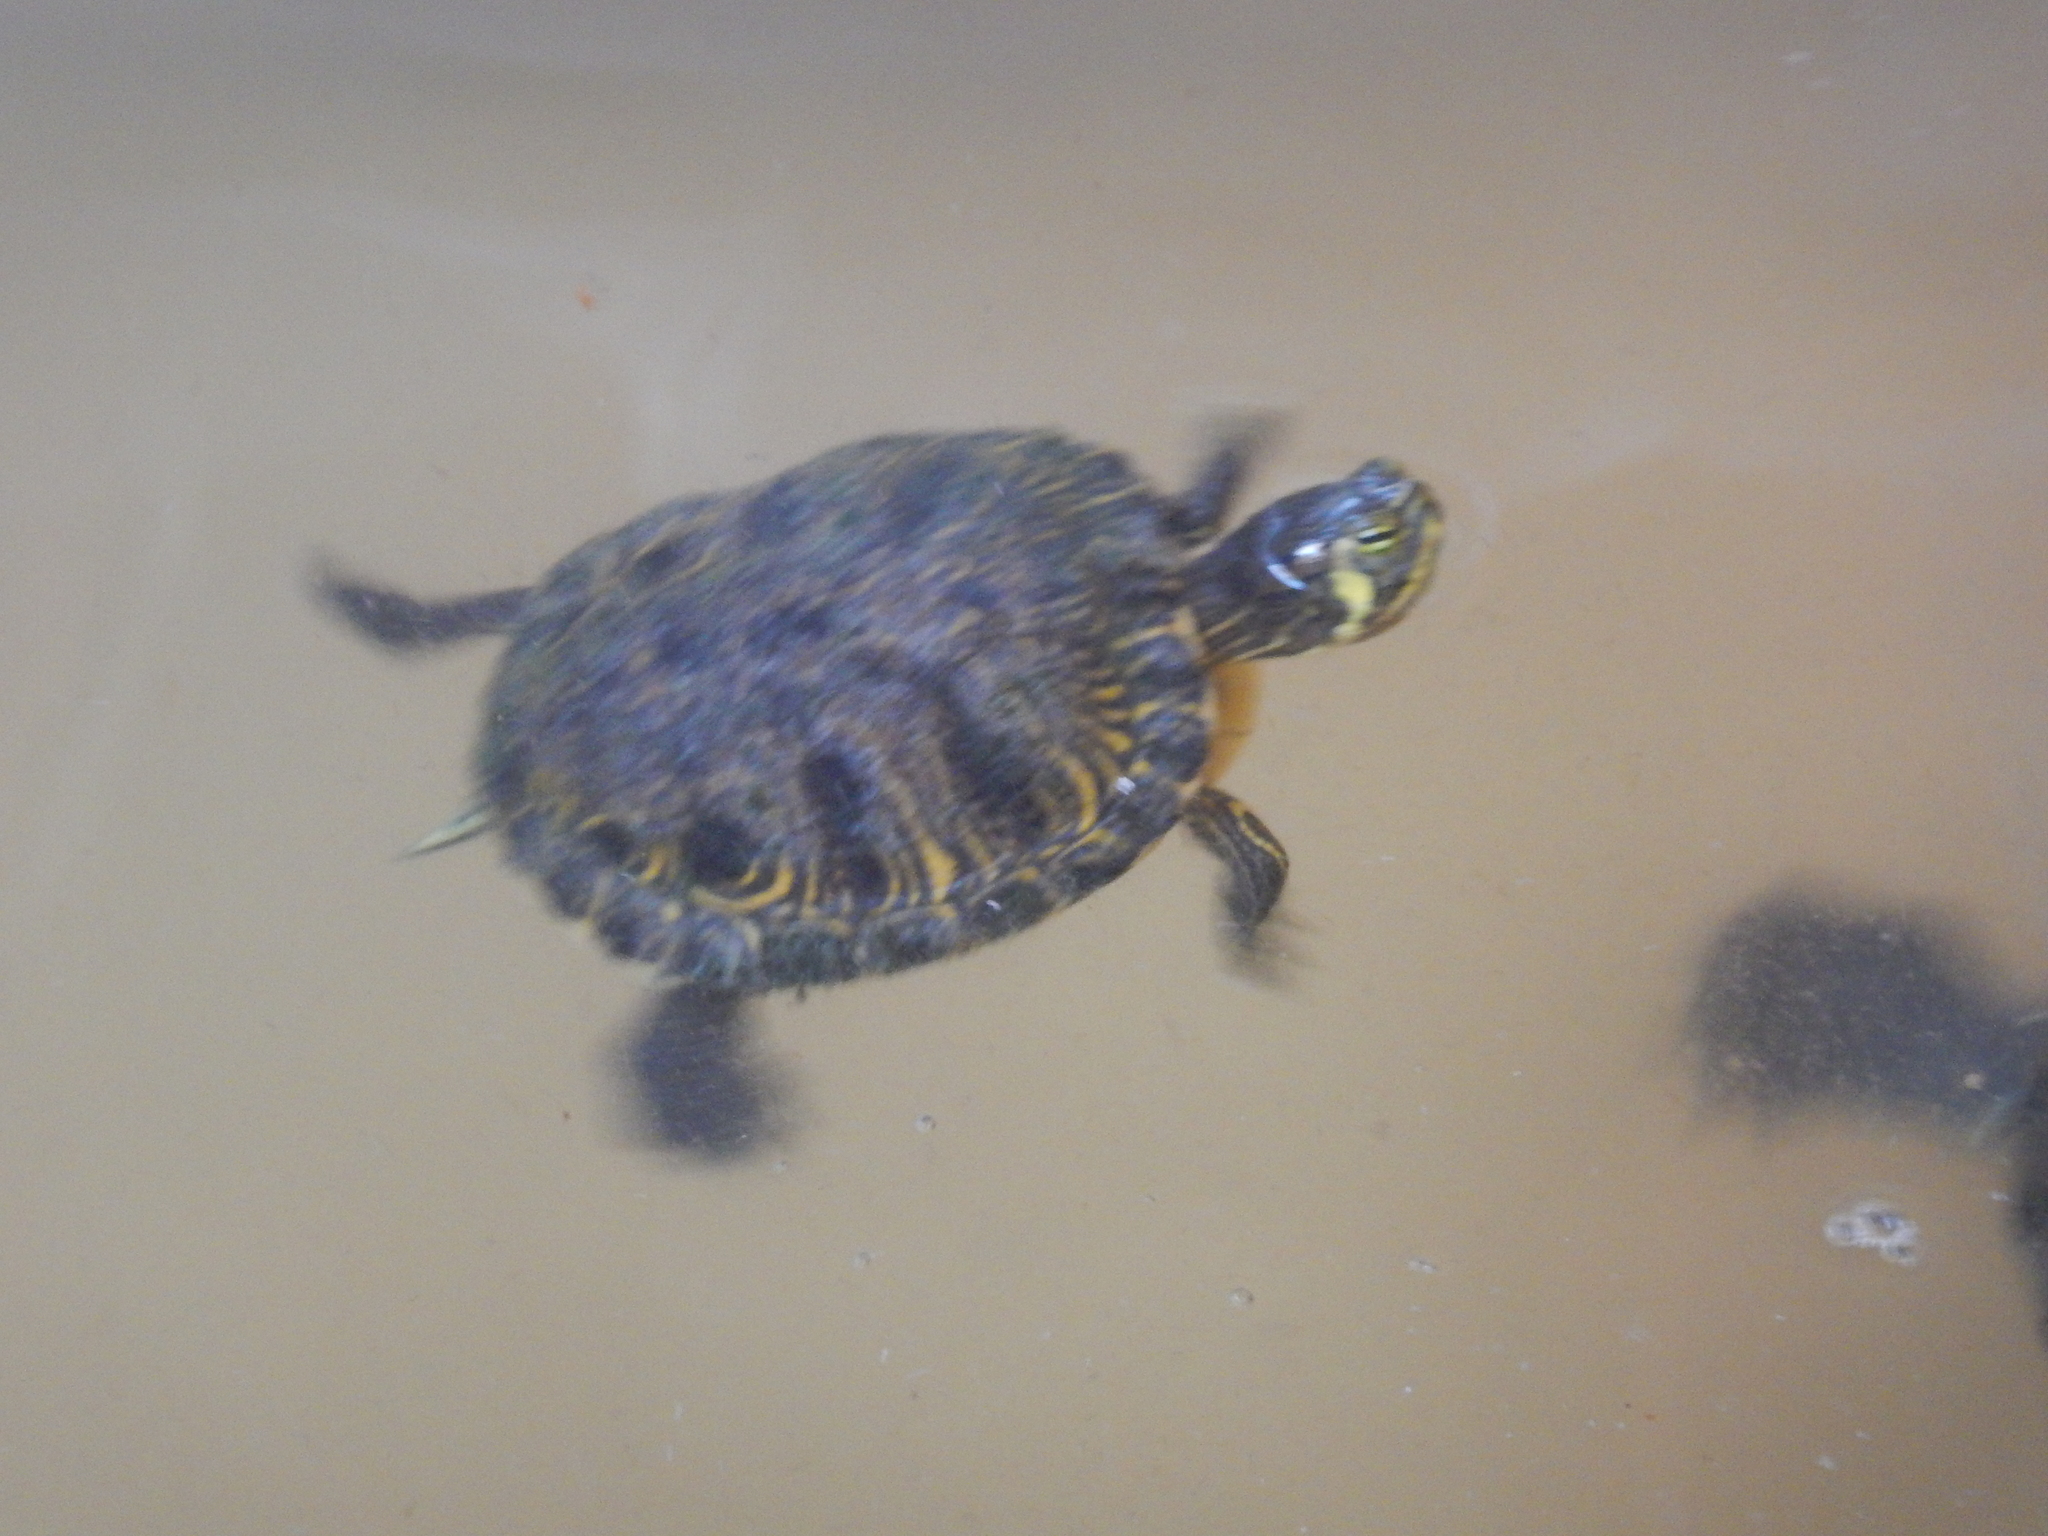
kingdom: Animalia
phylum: Chordata
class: Testudines
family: Emydidae
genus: Trachemys
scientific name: Trachemys scripta
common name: Slider
